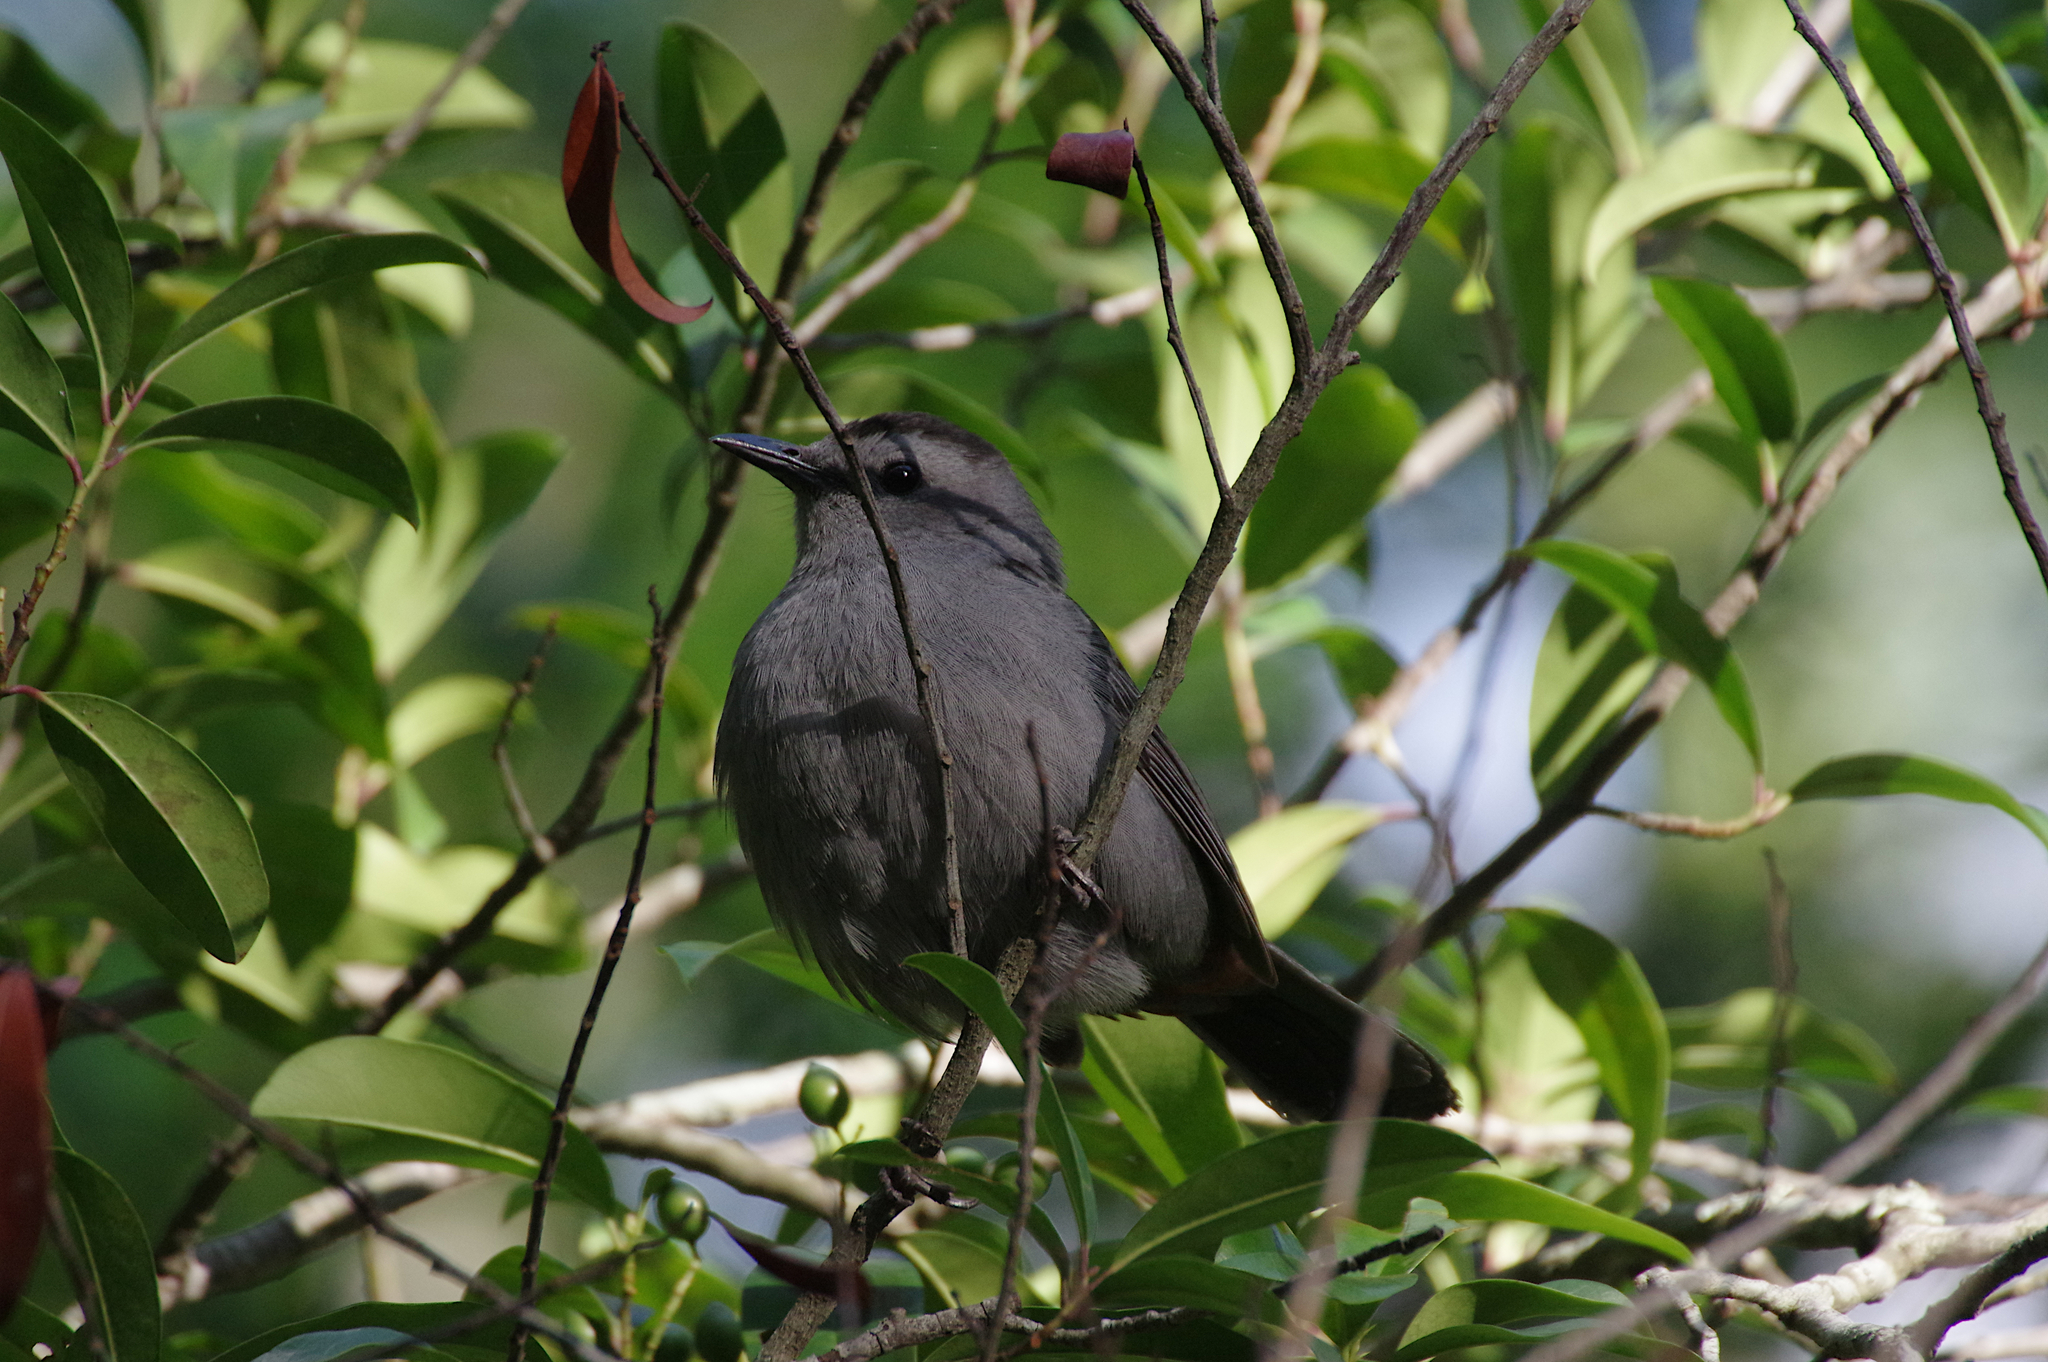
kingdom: Animalia
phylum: Chordata
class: Aves
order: Passeriformes
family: Mimidae
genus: Dumetella
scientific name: Dumetella carolinensis
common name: Gray catbird
